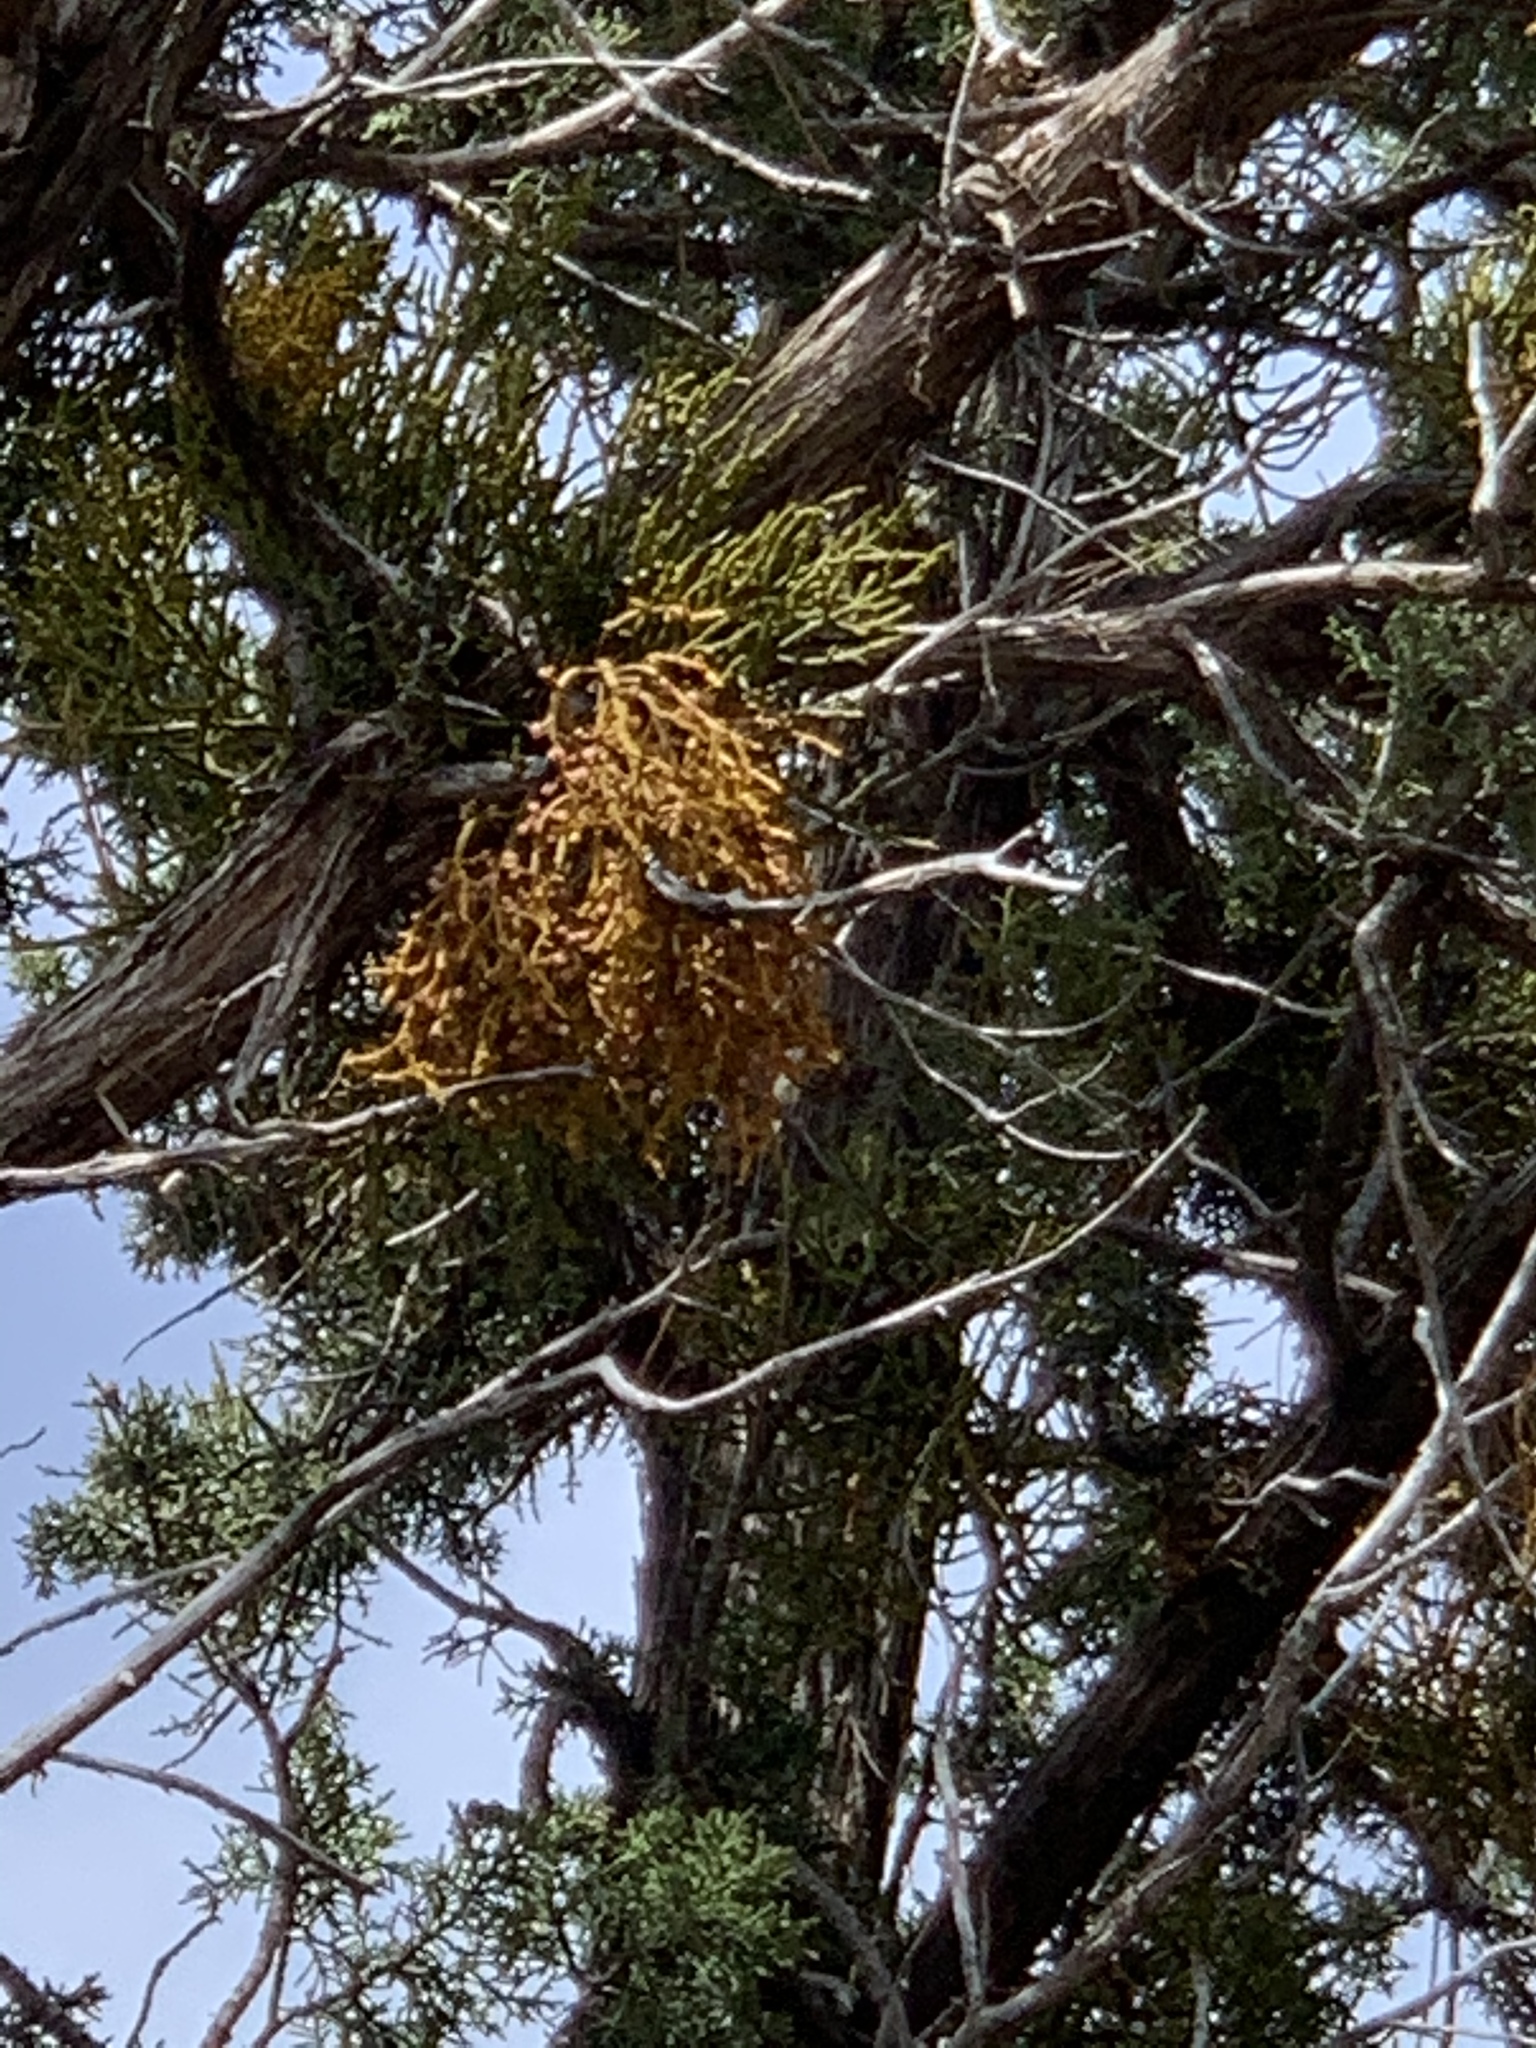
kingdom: Plantae
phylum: Tracheophyta
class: Magnoliopsida
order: Santalales
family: Viscaceae
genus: Phoradendron
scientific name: Phoradendron juniperinum
